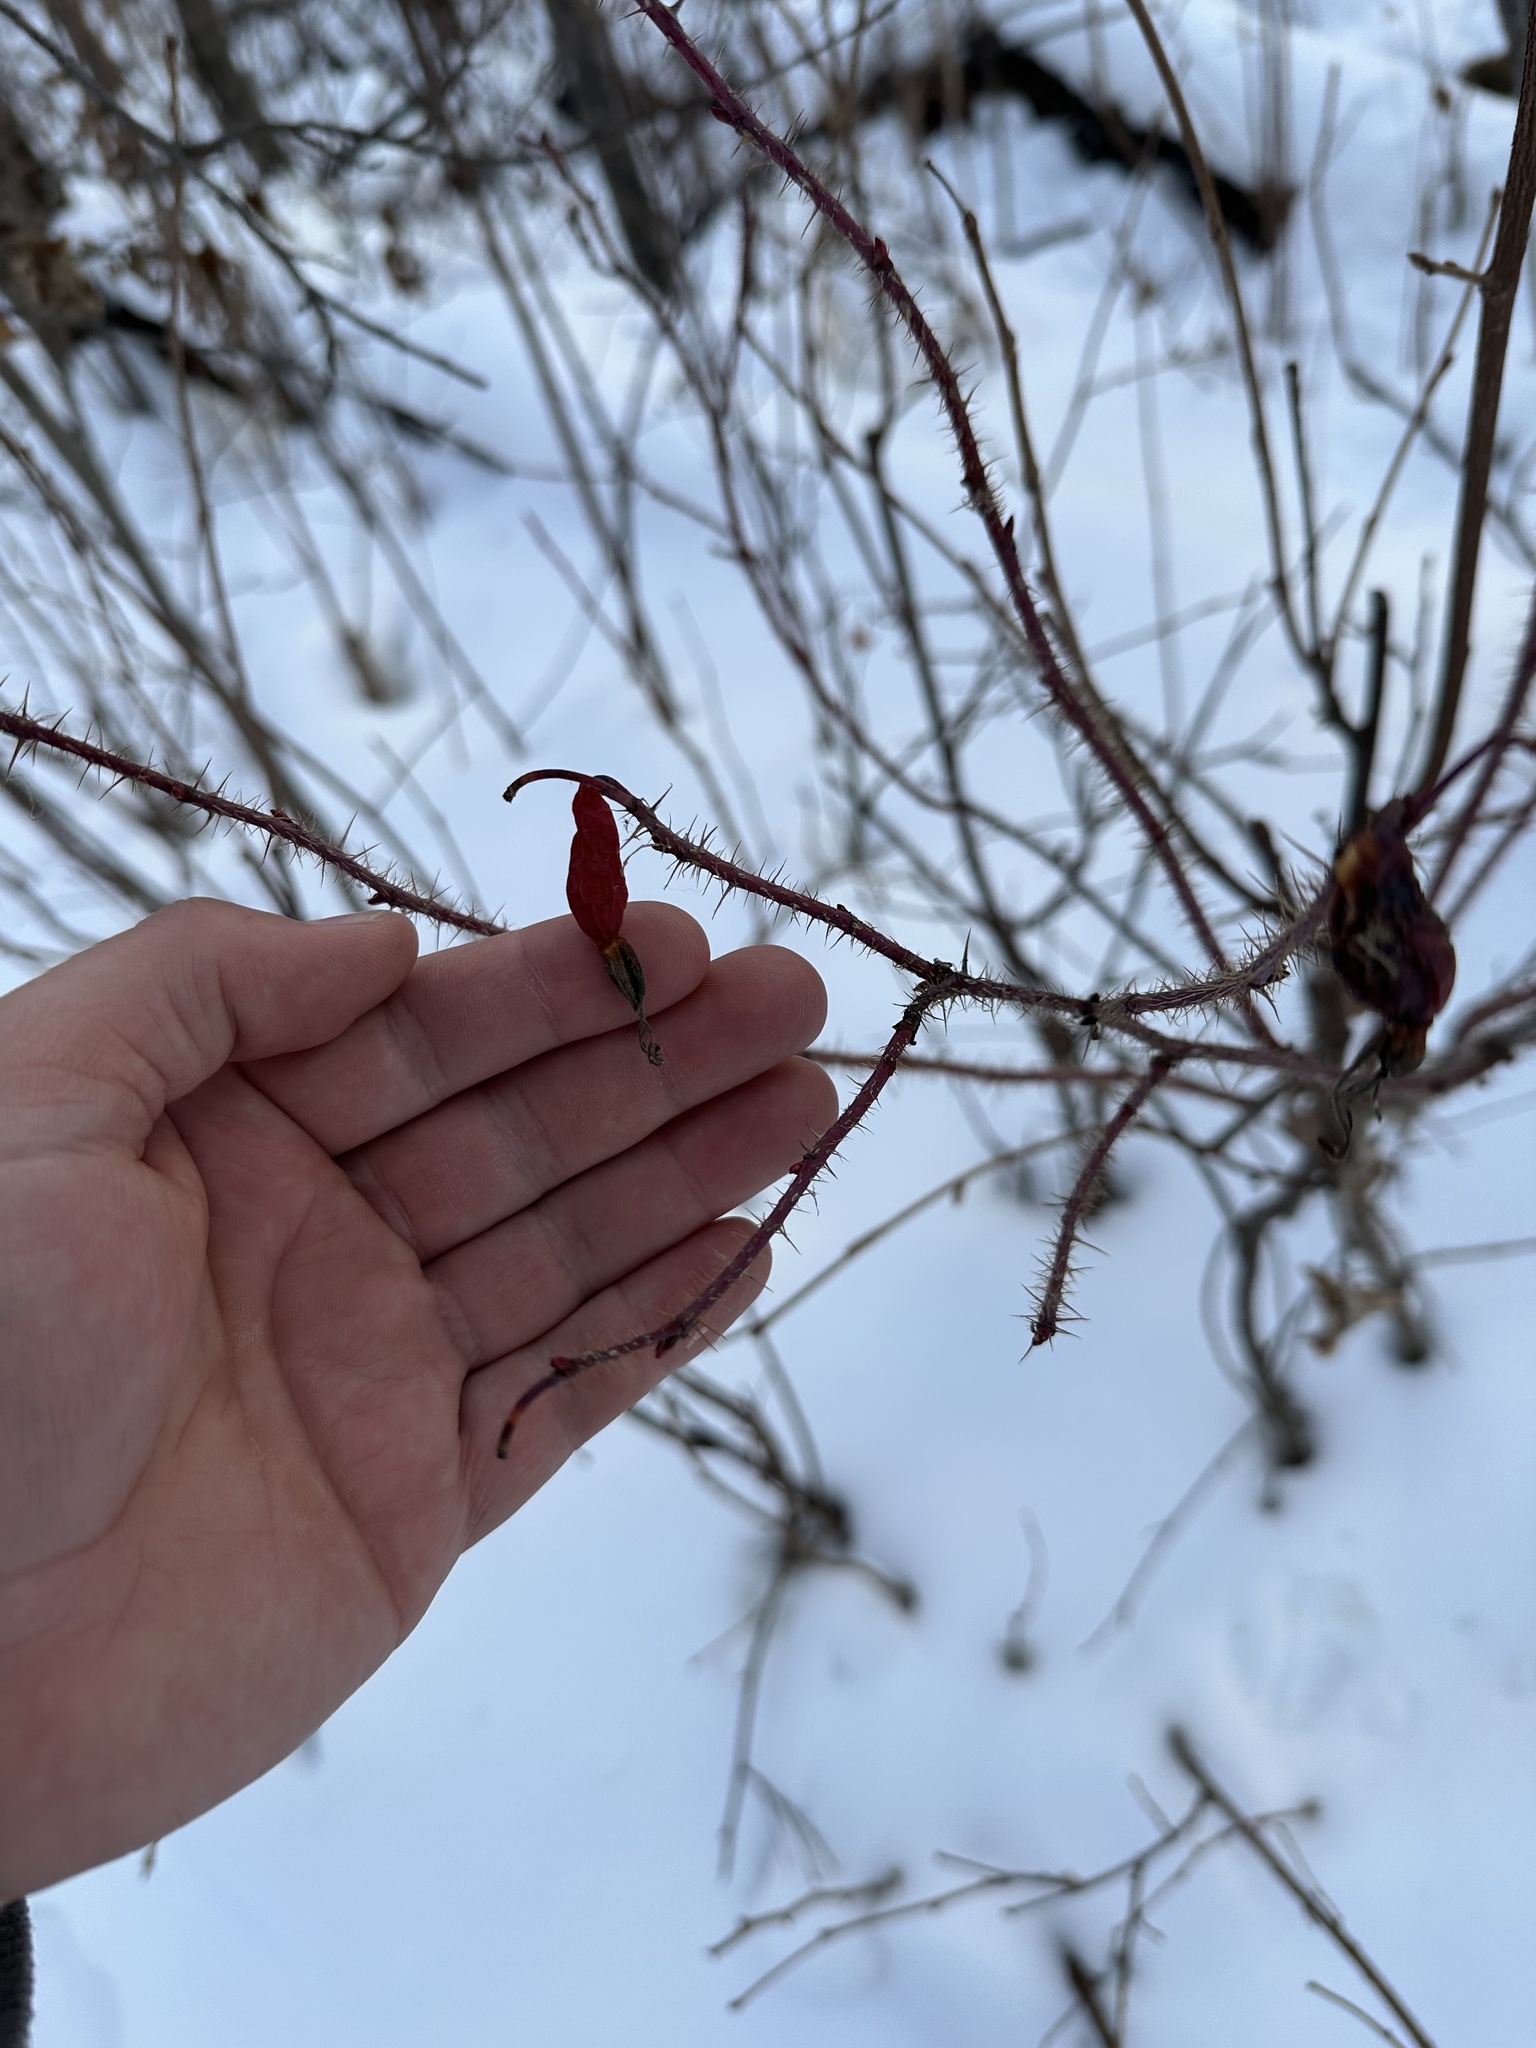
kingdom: Plantae
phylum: Tracheophyta
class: Magnoliopsida
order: Rosales
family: Rosaceae
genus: Rosa
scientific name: Rosa acicularis
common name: Prickly rose
